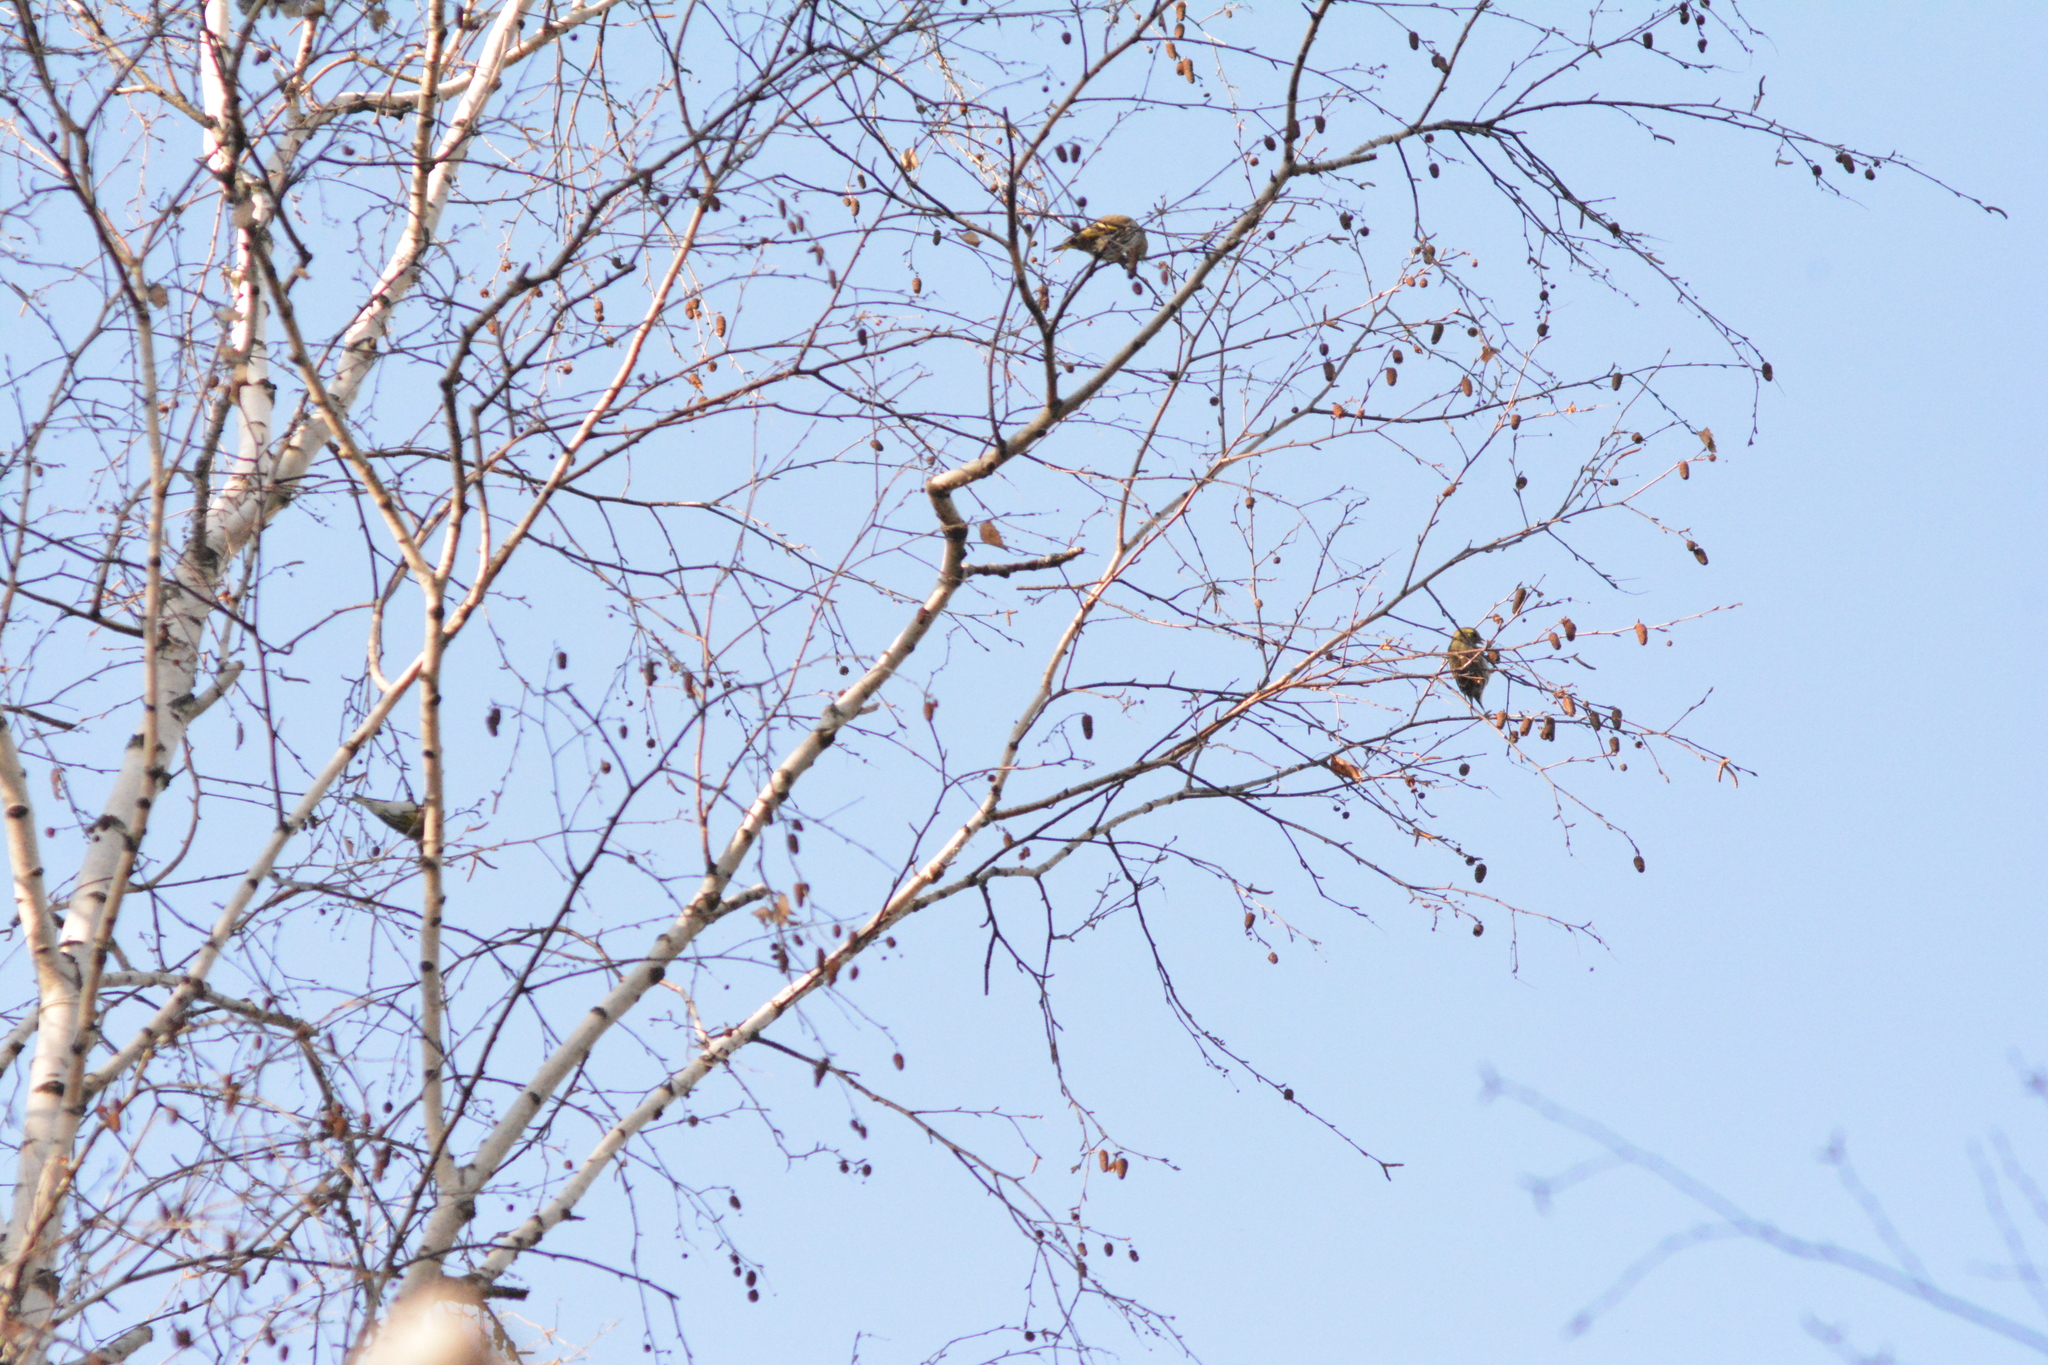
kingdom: Animalia
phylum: Chordata
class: Aves
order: Passeriformes
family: Fringillidae
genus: Spinus
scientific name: Spinus spinus
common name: Eurasian siskin
